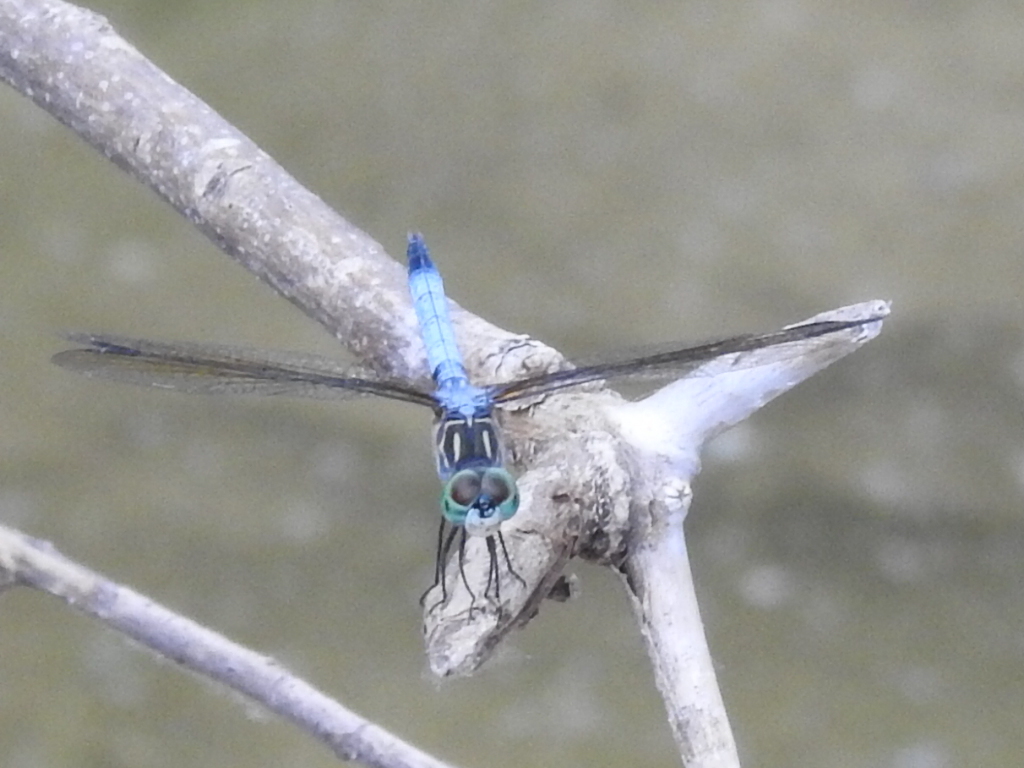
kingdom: Animalia
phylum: Arthropoda
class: Insecta
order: Odonata
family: Libellulidae
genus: Pachydiplax
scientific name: Pachydiplax longipennis
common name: Blue dasher
